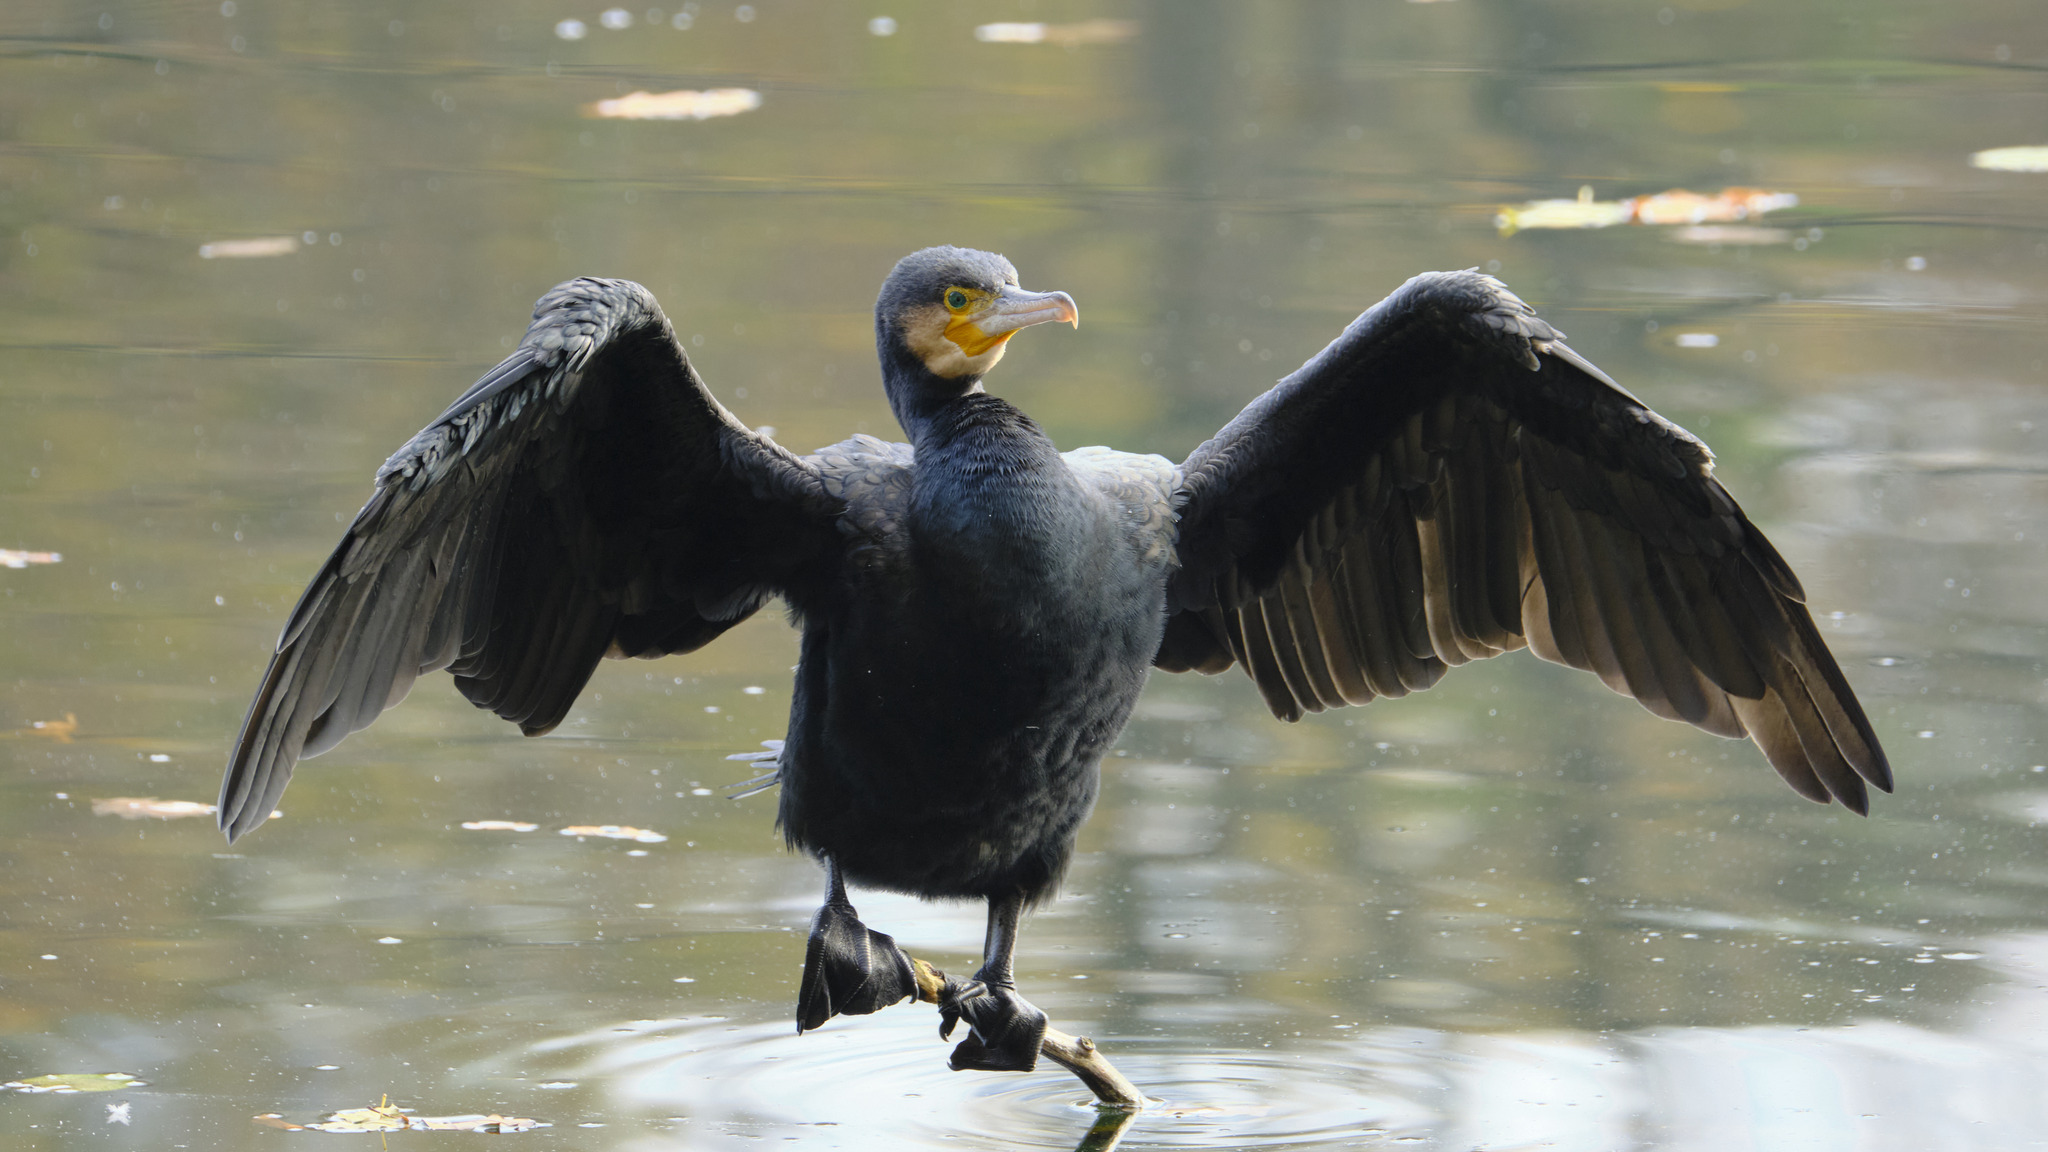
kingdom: Animalia
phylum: Chordata
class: Aves
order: Suliformes
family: Phalacrocoracidae
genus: Phalacrocorax
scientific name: Phalacrocorax carbo
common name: Great cormorant
